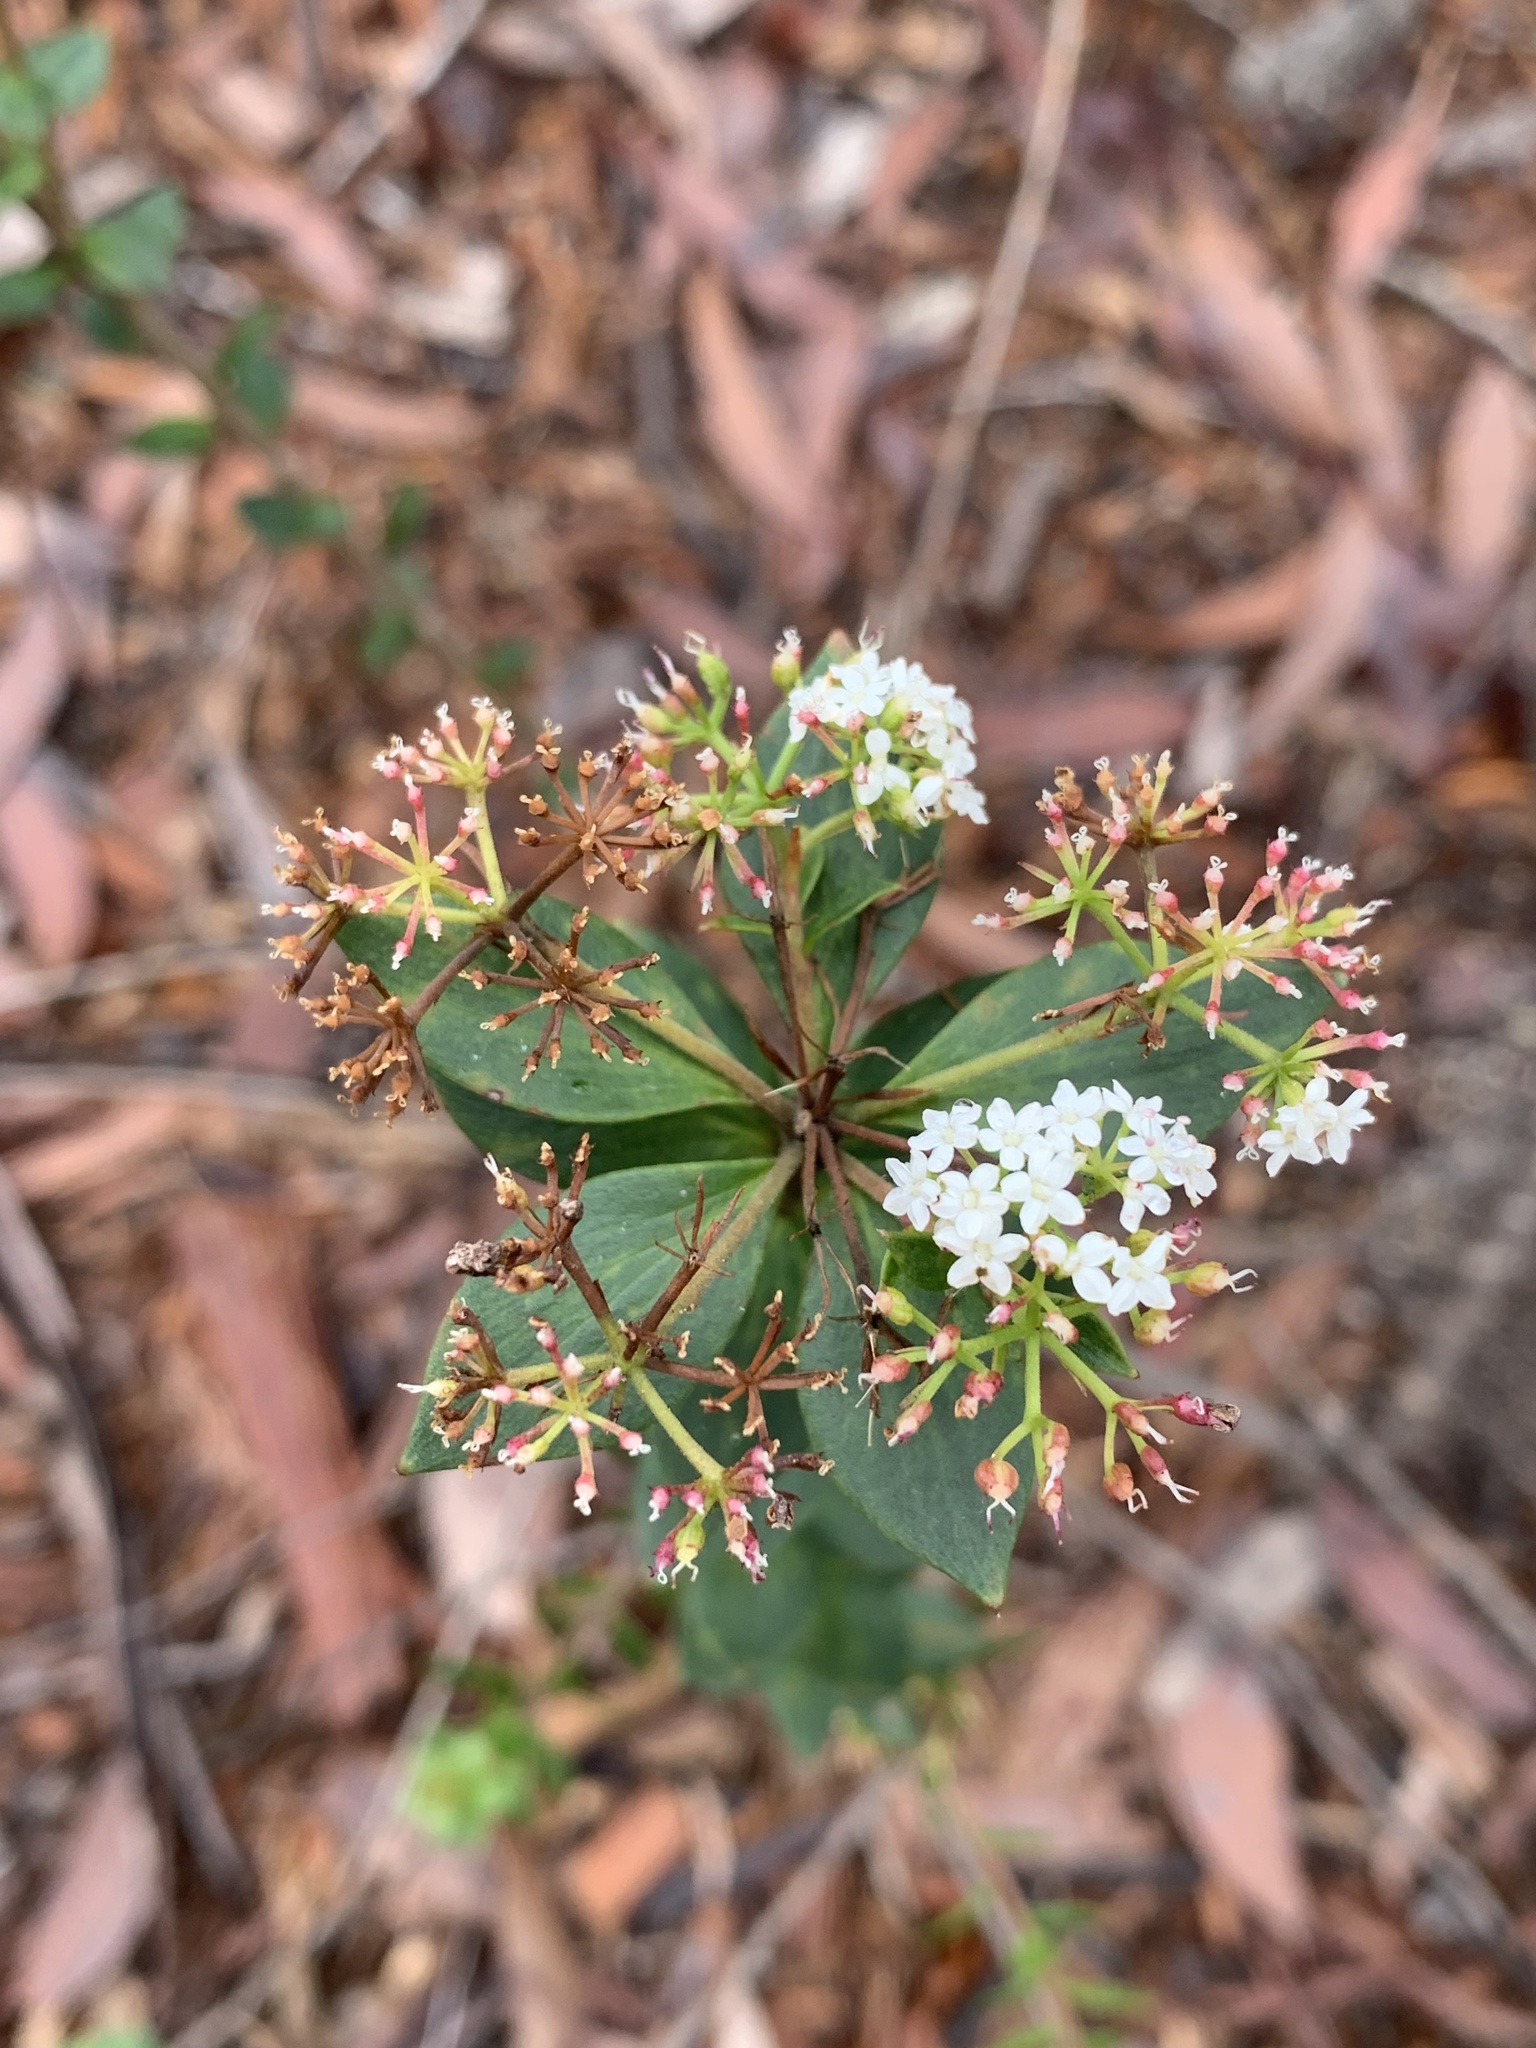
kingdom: Plantae
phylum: Tracheophyta
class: Magnoliopsida
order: Apiales
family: Apiaceae
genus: Platysace
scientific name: Platysace lanceolata
